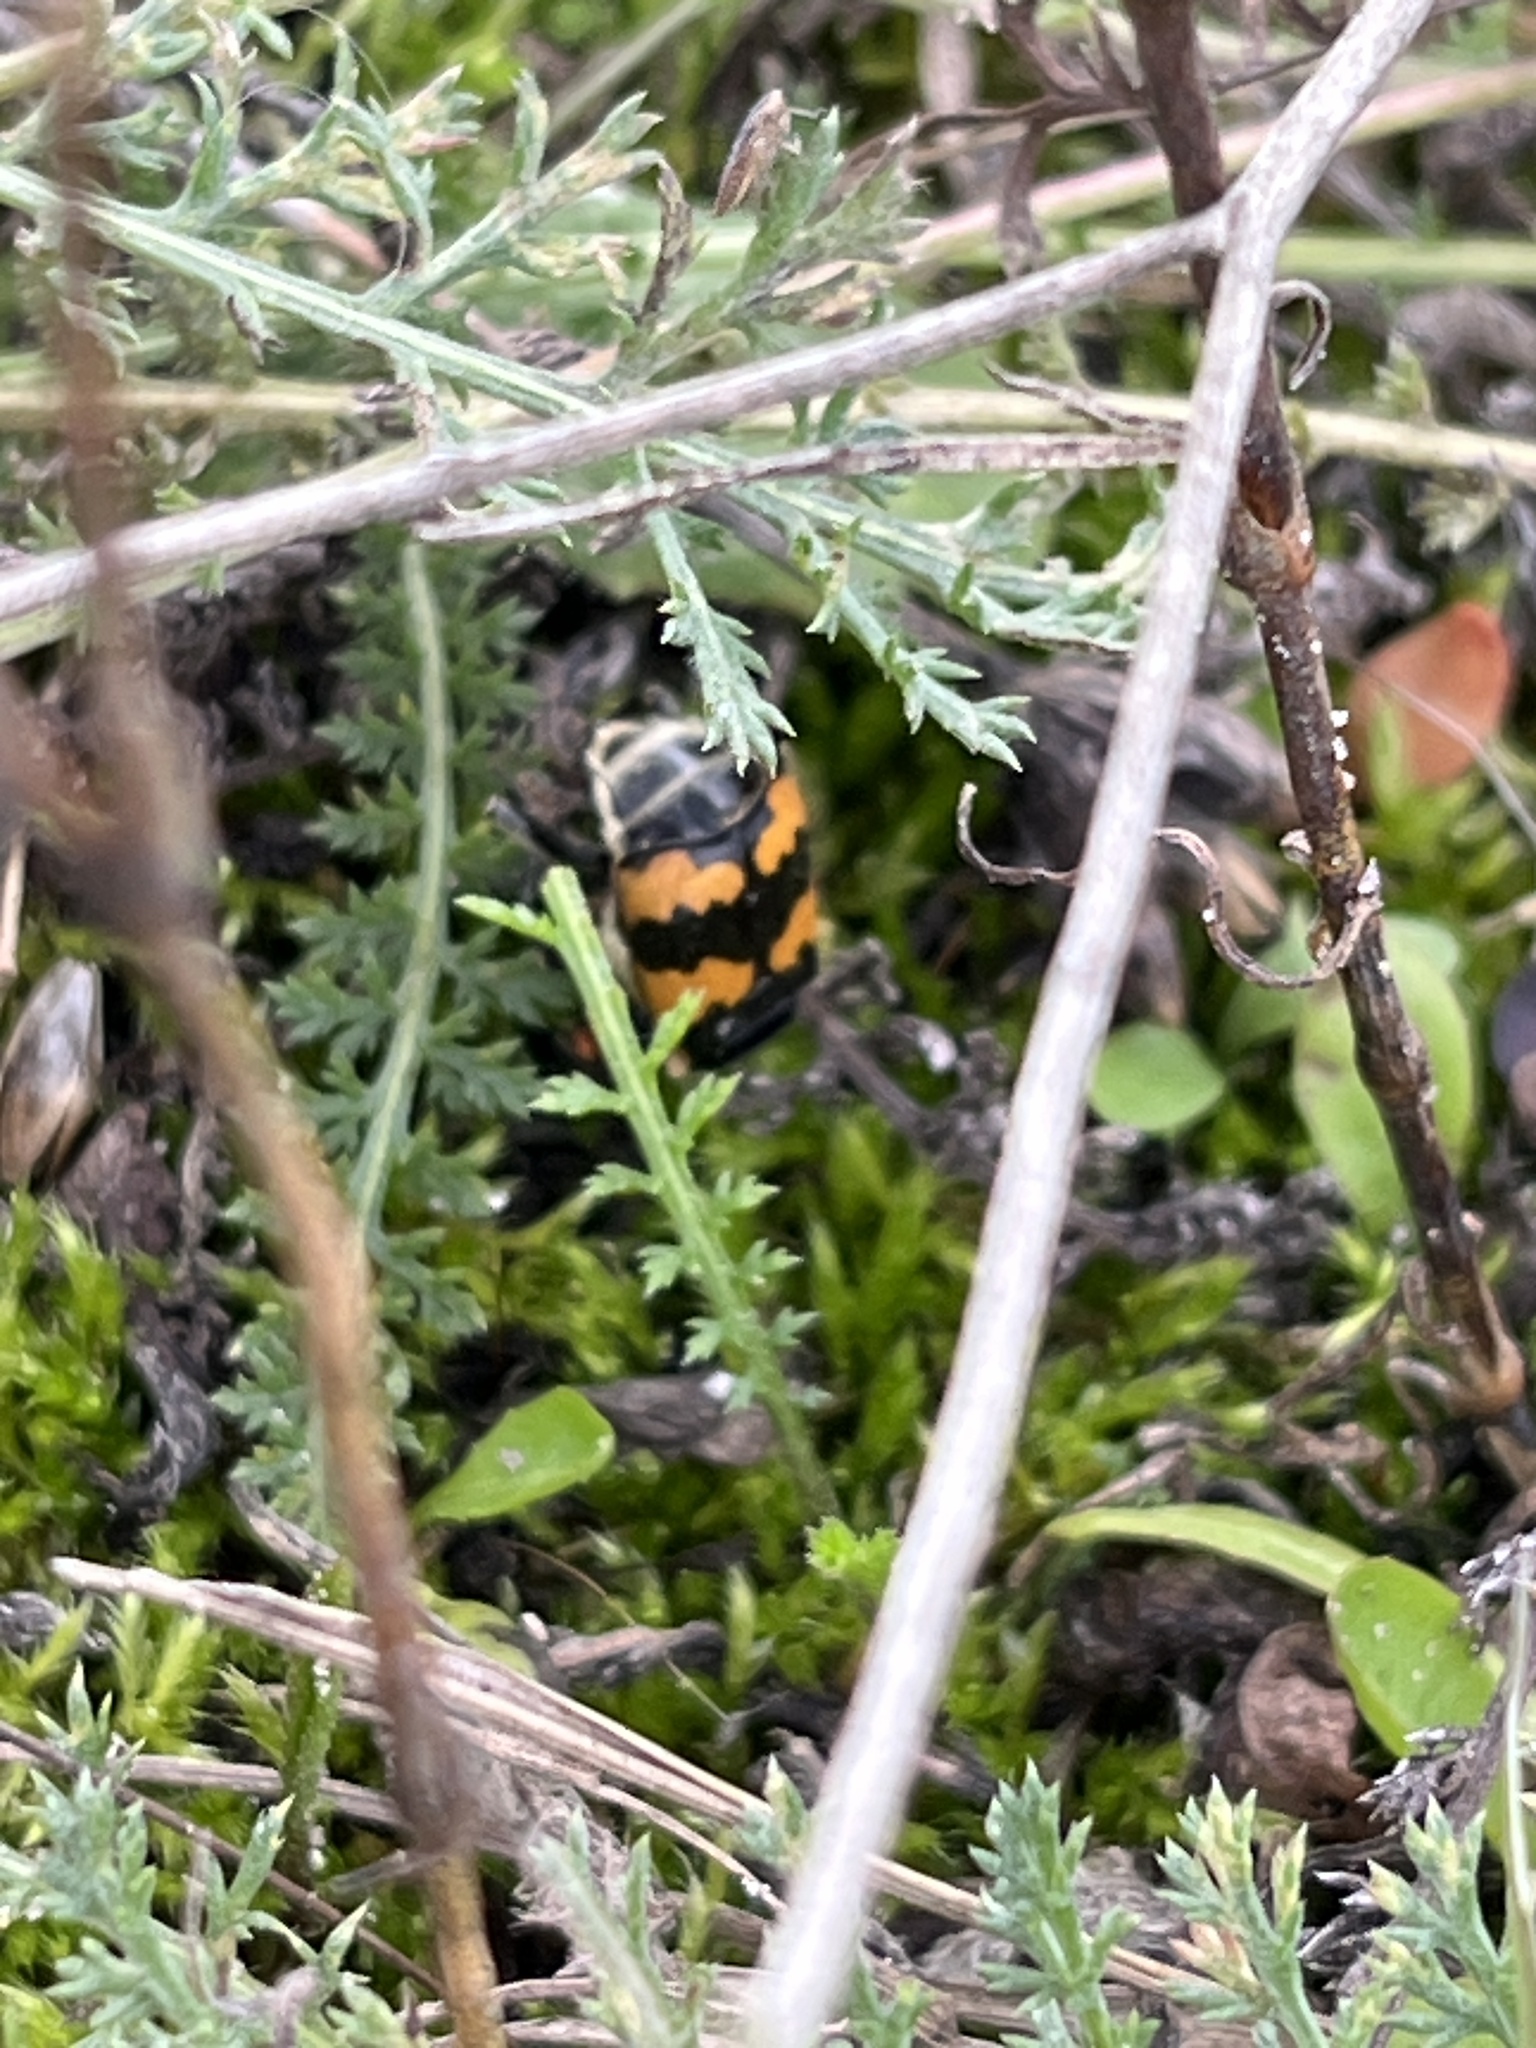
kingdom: Animalia
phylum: Arthropoda
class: Insecta
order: Coleoptera
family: Staphylinidae
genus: Nicrophorus
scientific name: Nicrophorus vespillo
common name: Common burying beetle
